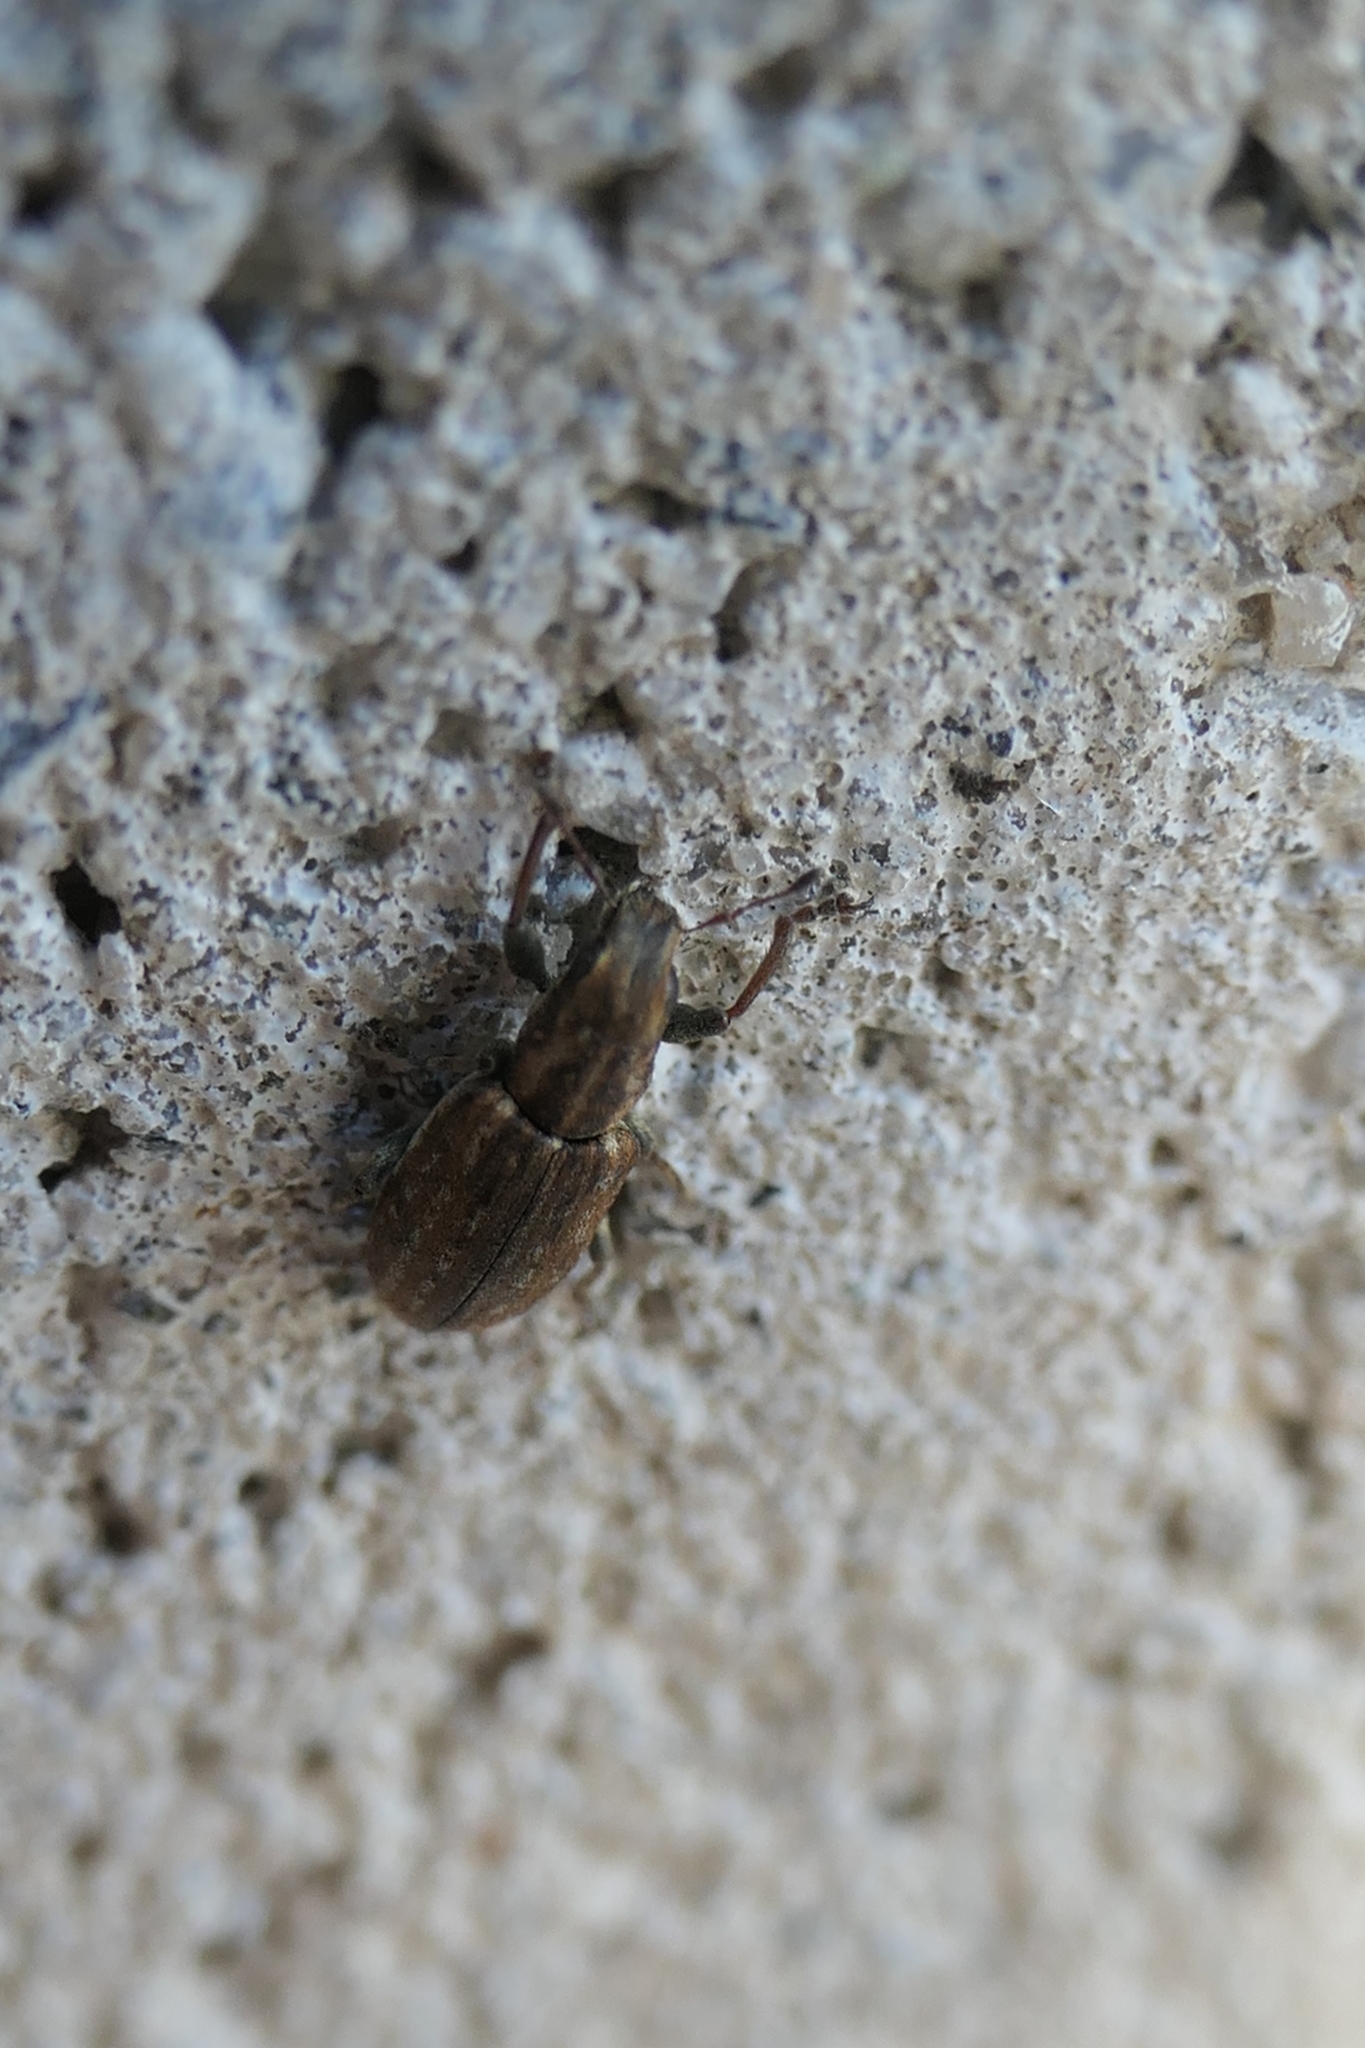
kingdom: Animalia
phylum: Arthropoda
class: Insecta
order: Coleoptera
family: Curculionidae
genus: Sitona
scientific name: Sitona obsoletus
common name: Weevil
